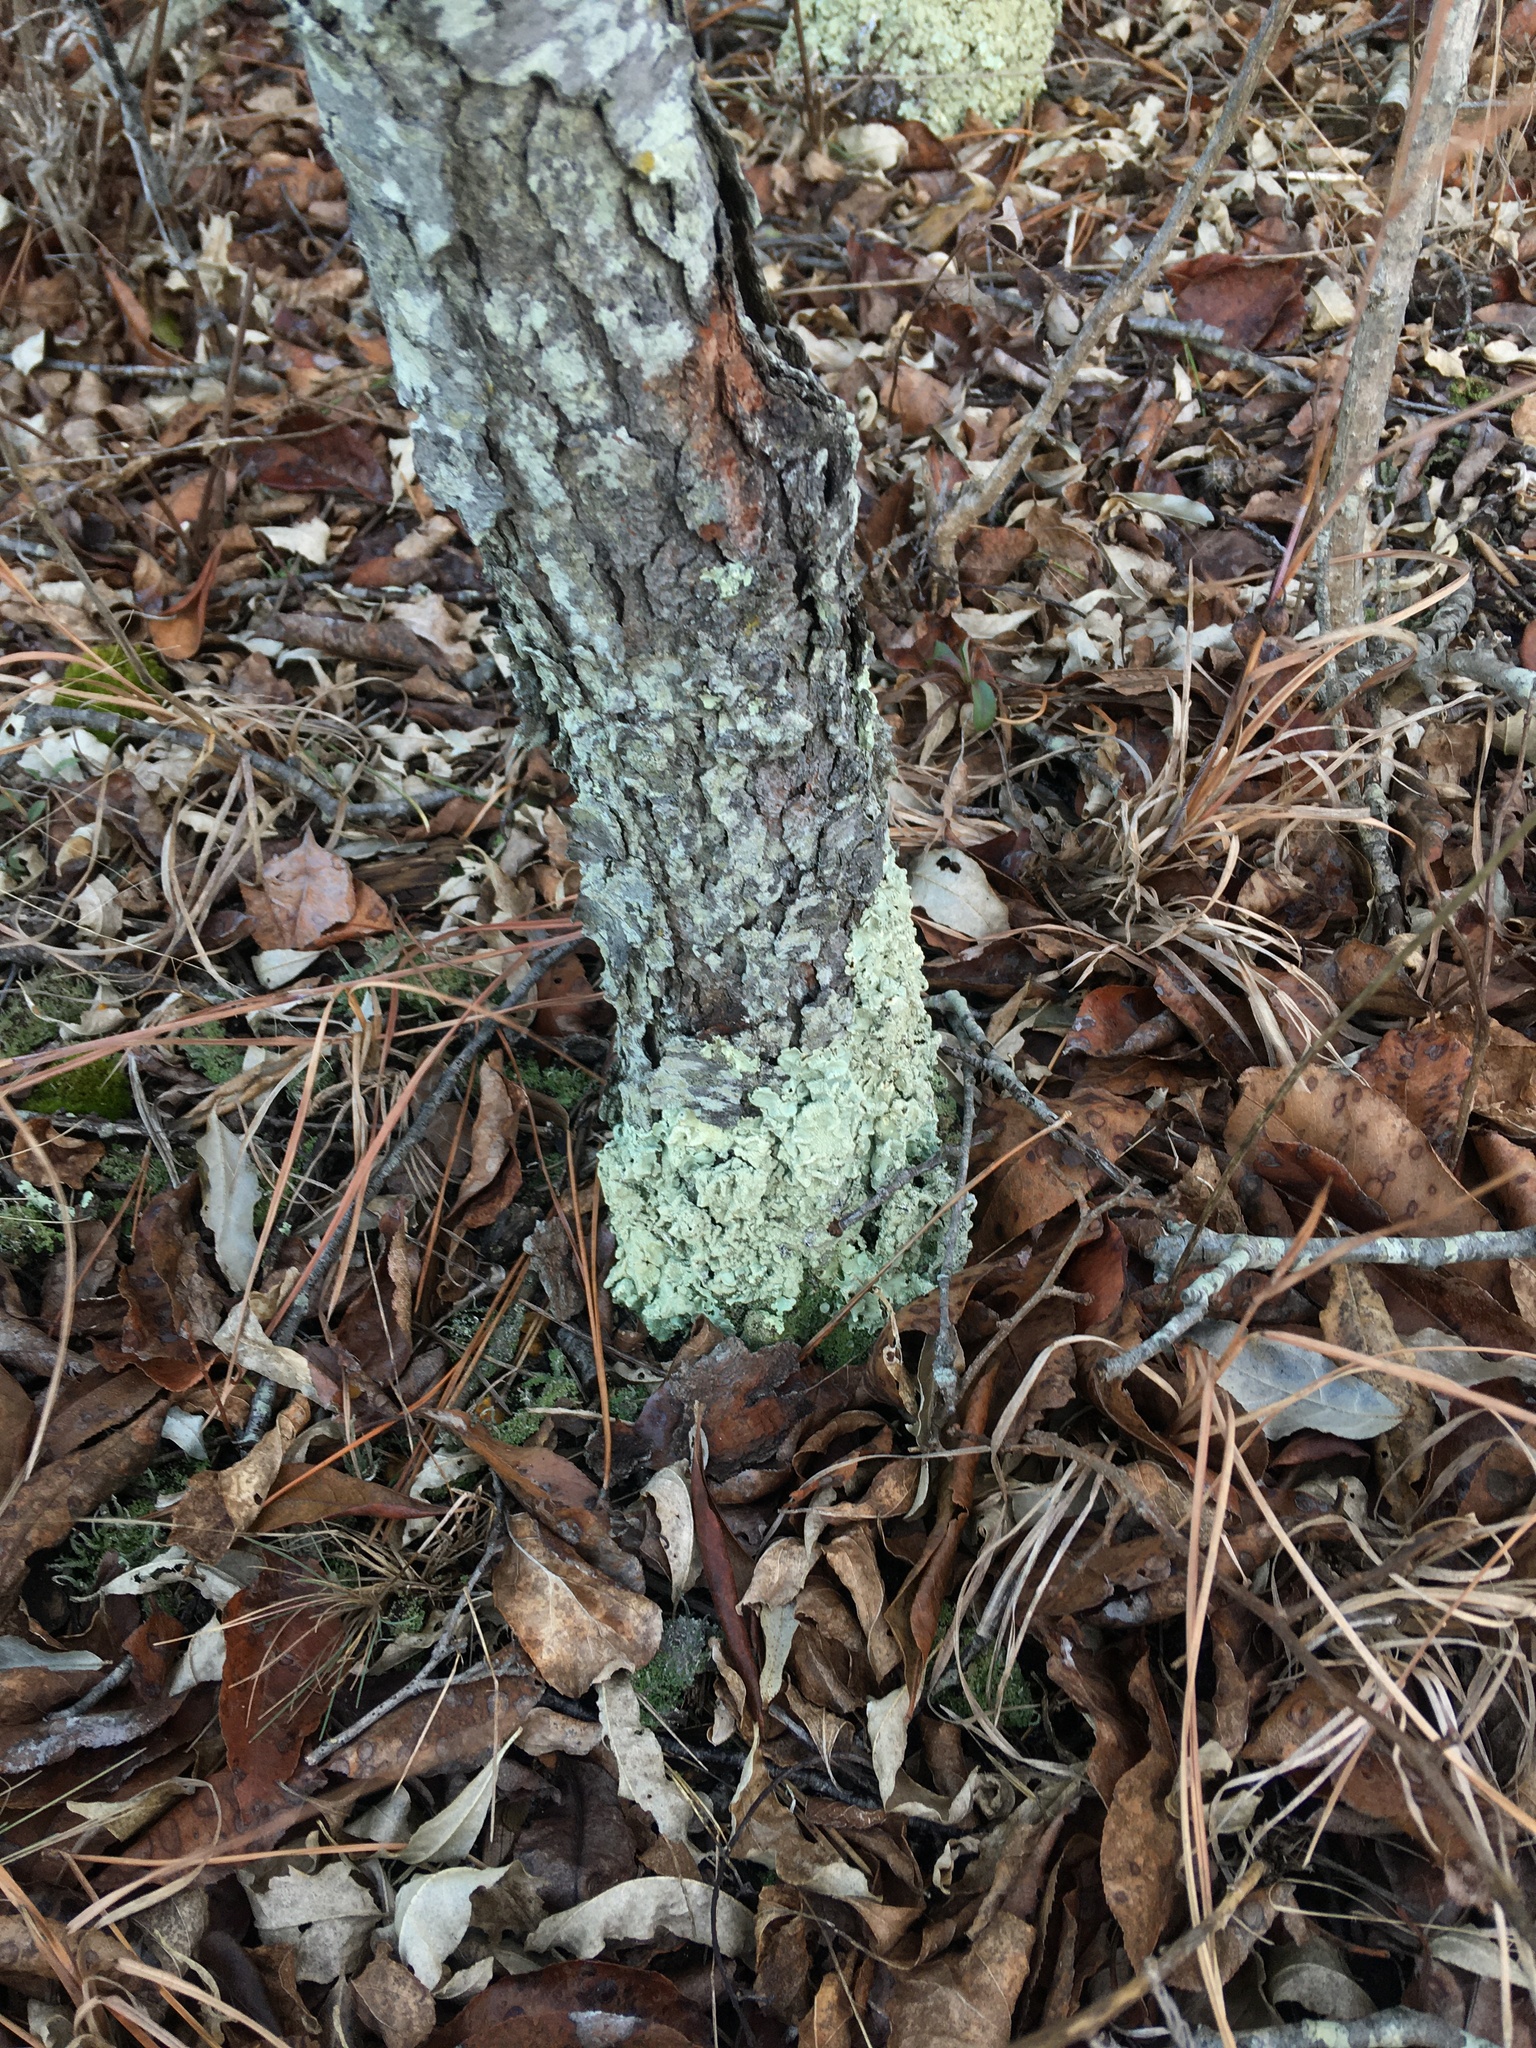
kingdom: Fungi
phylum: Ascomycota
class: Lecanoromycetes
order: Lecanorales
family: Parmeliaceae
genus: Flavoparmelia
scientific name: Flavoparmelia caperata
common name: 40-mile per hour lichen
